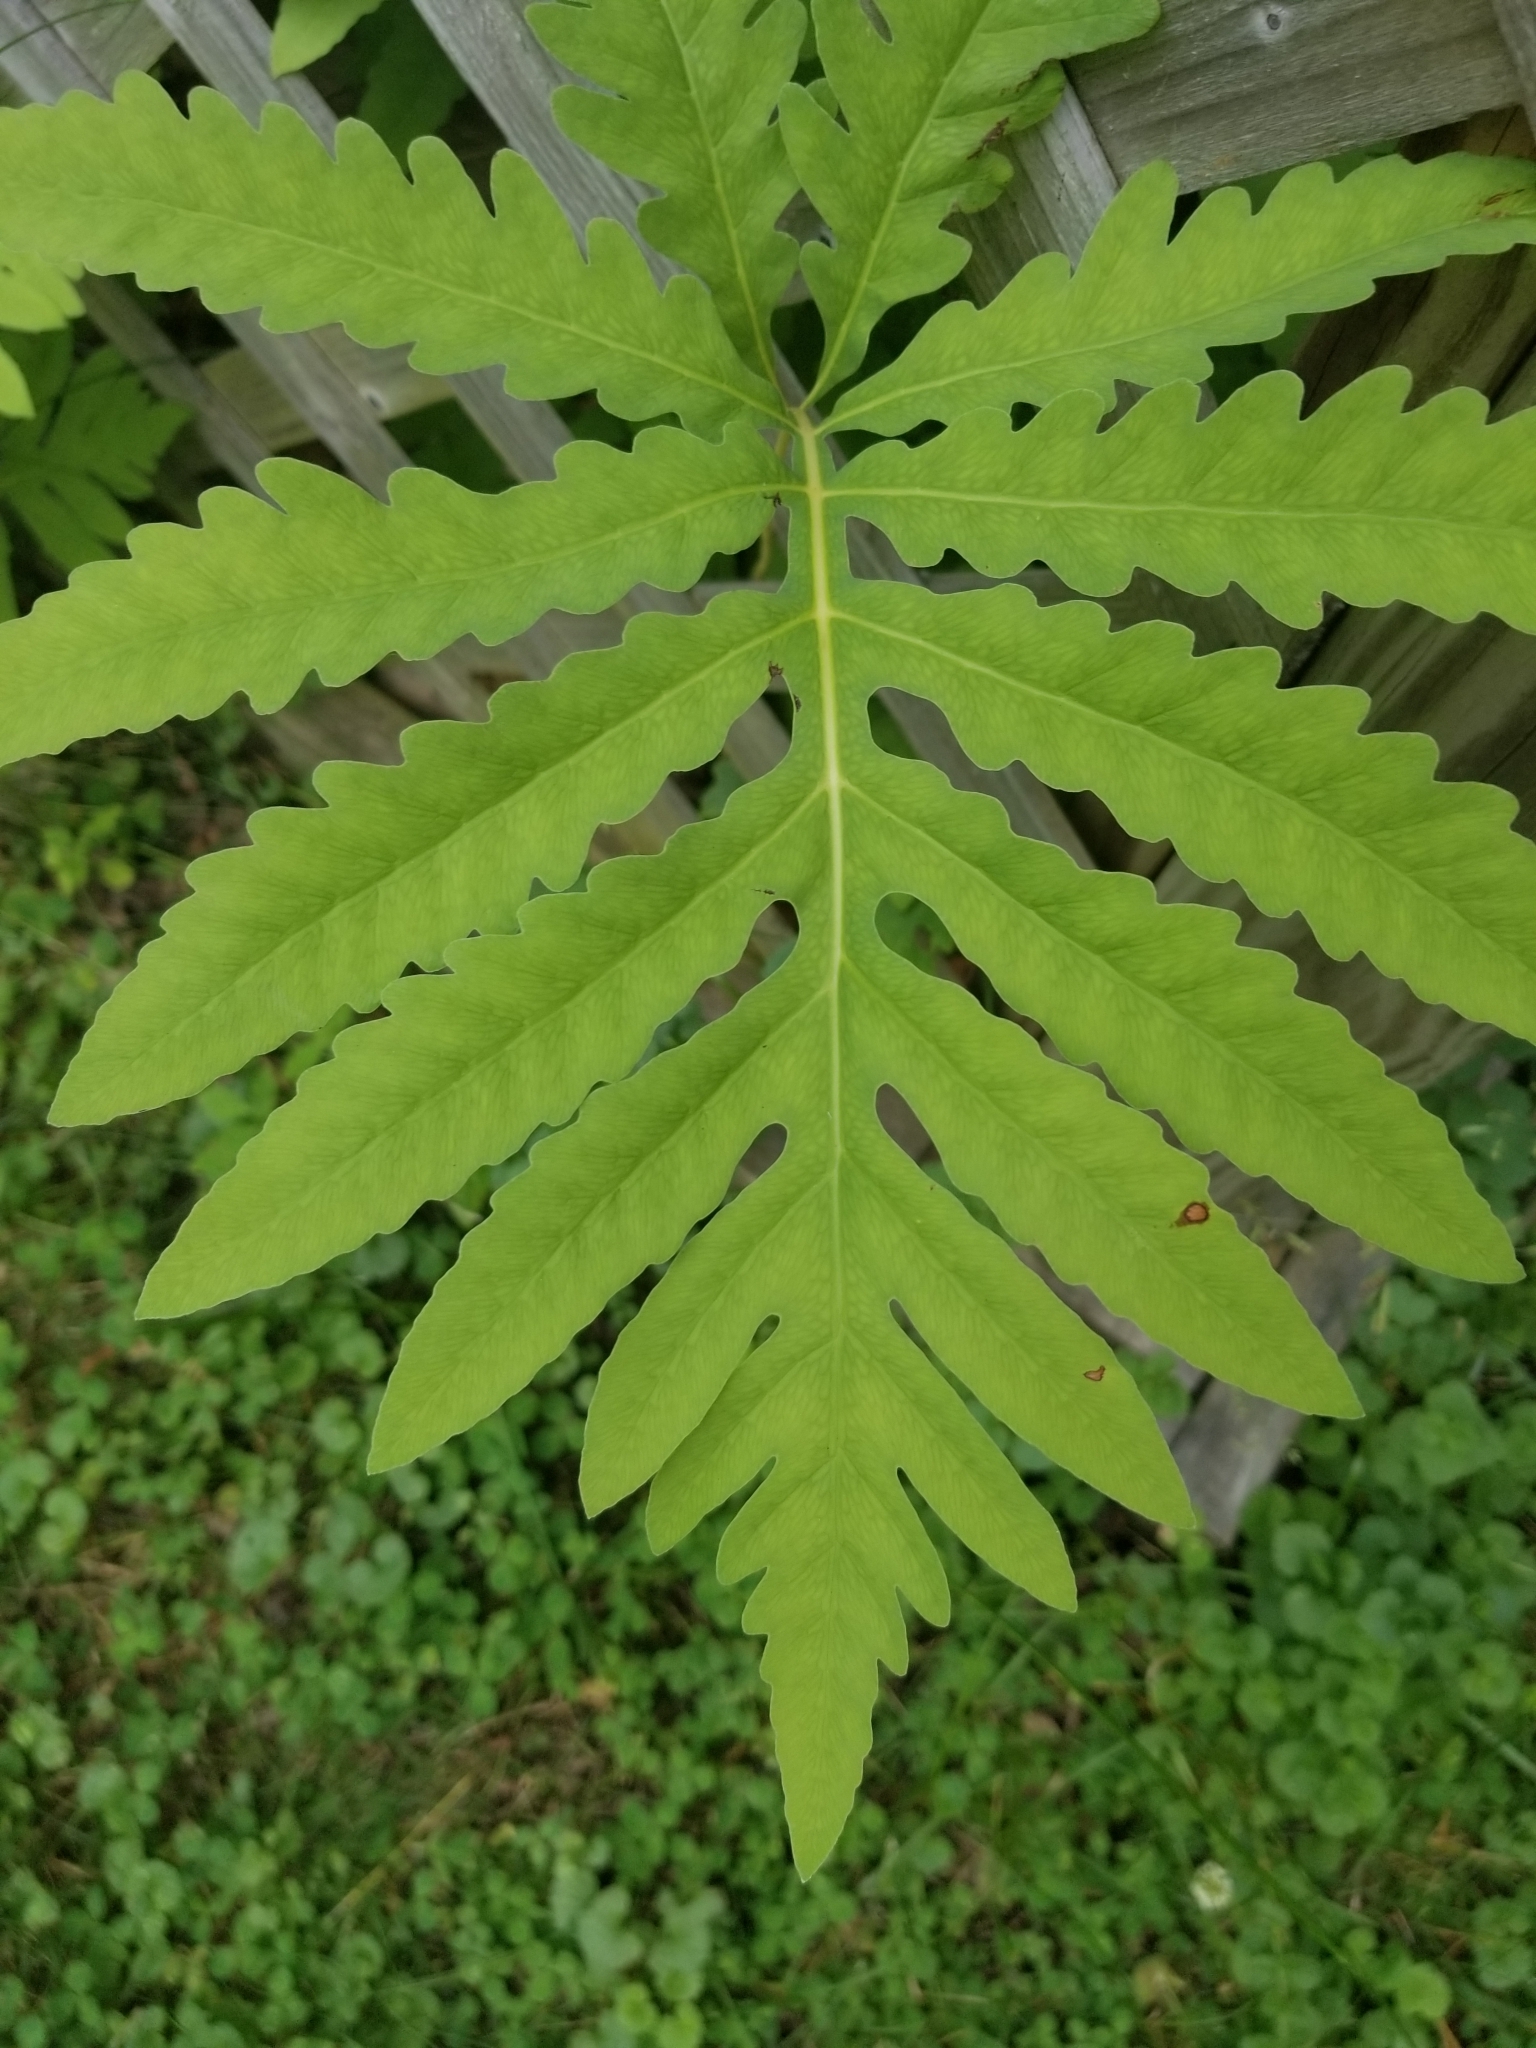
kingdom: Plantae
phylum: Tracheophyta
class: Polypodiopsida
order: Polypodiales
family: Onocleaceae
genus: Onoclea
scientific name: Onoclea sensibilis
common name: Sensitive fern
